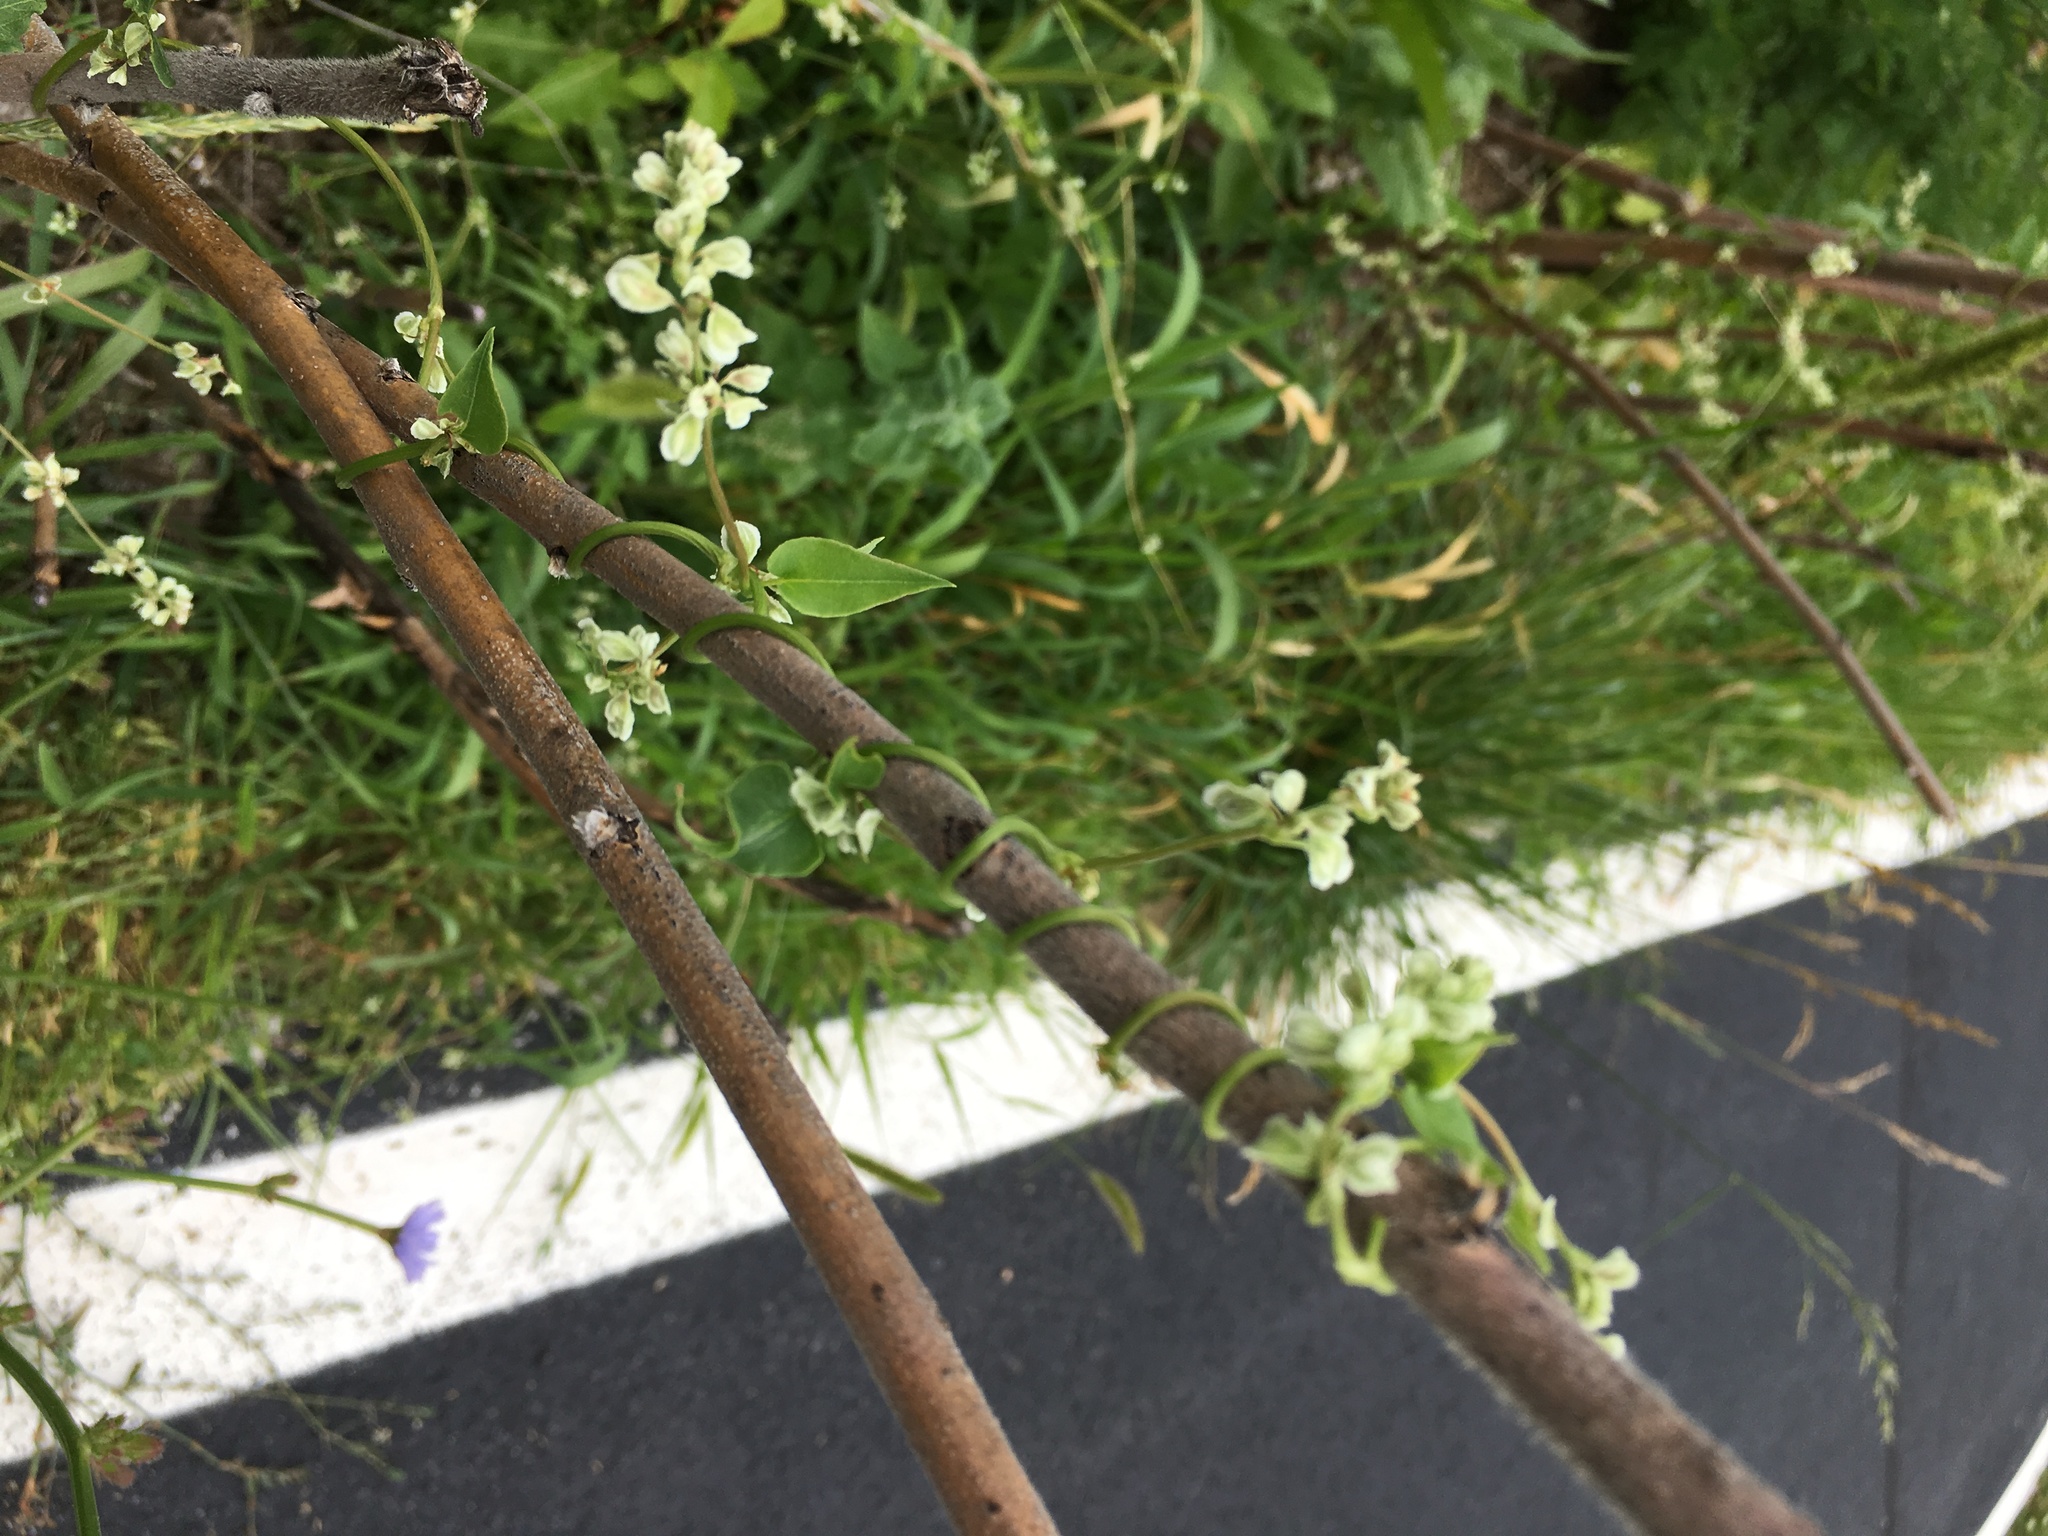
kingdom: Plantae
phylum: Tracheophyta
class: Magnoliopsida
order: Caryophyllales
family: Polygonaceae
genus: Fallopia
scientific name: Fallopia scandens
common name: Climbing false buckwheat
